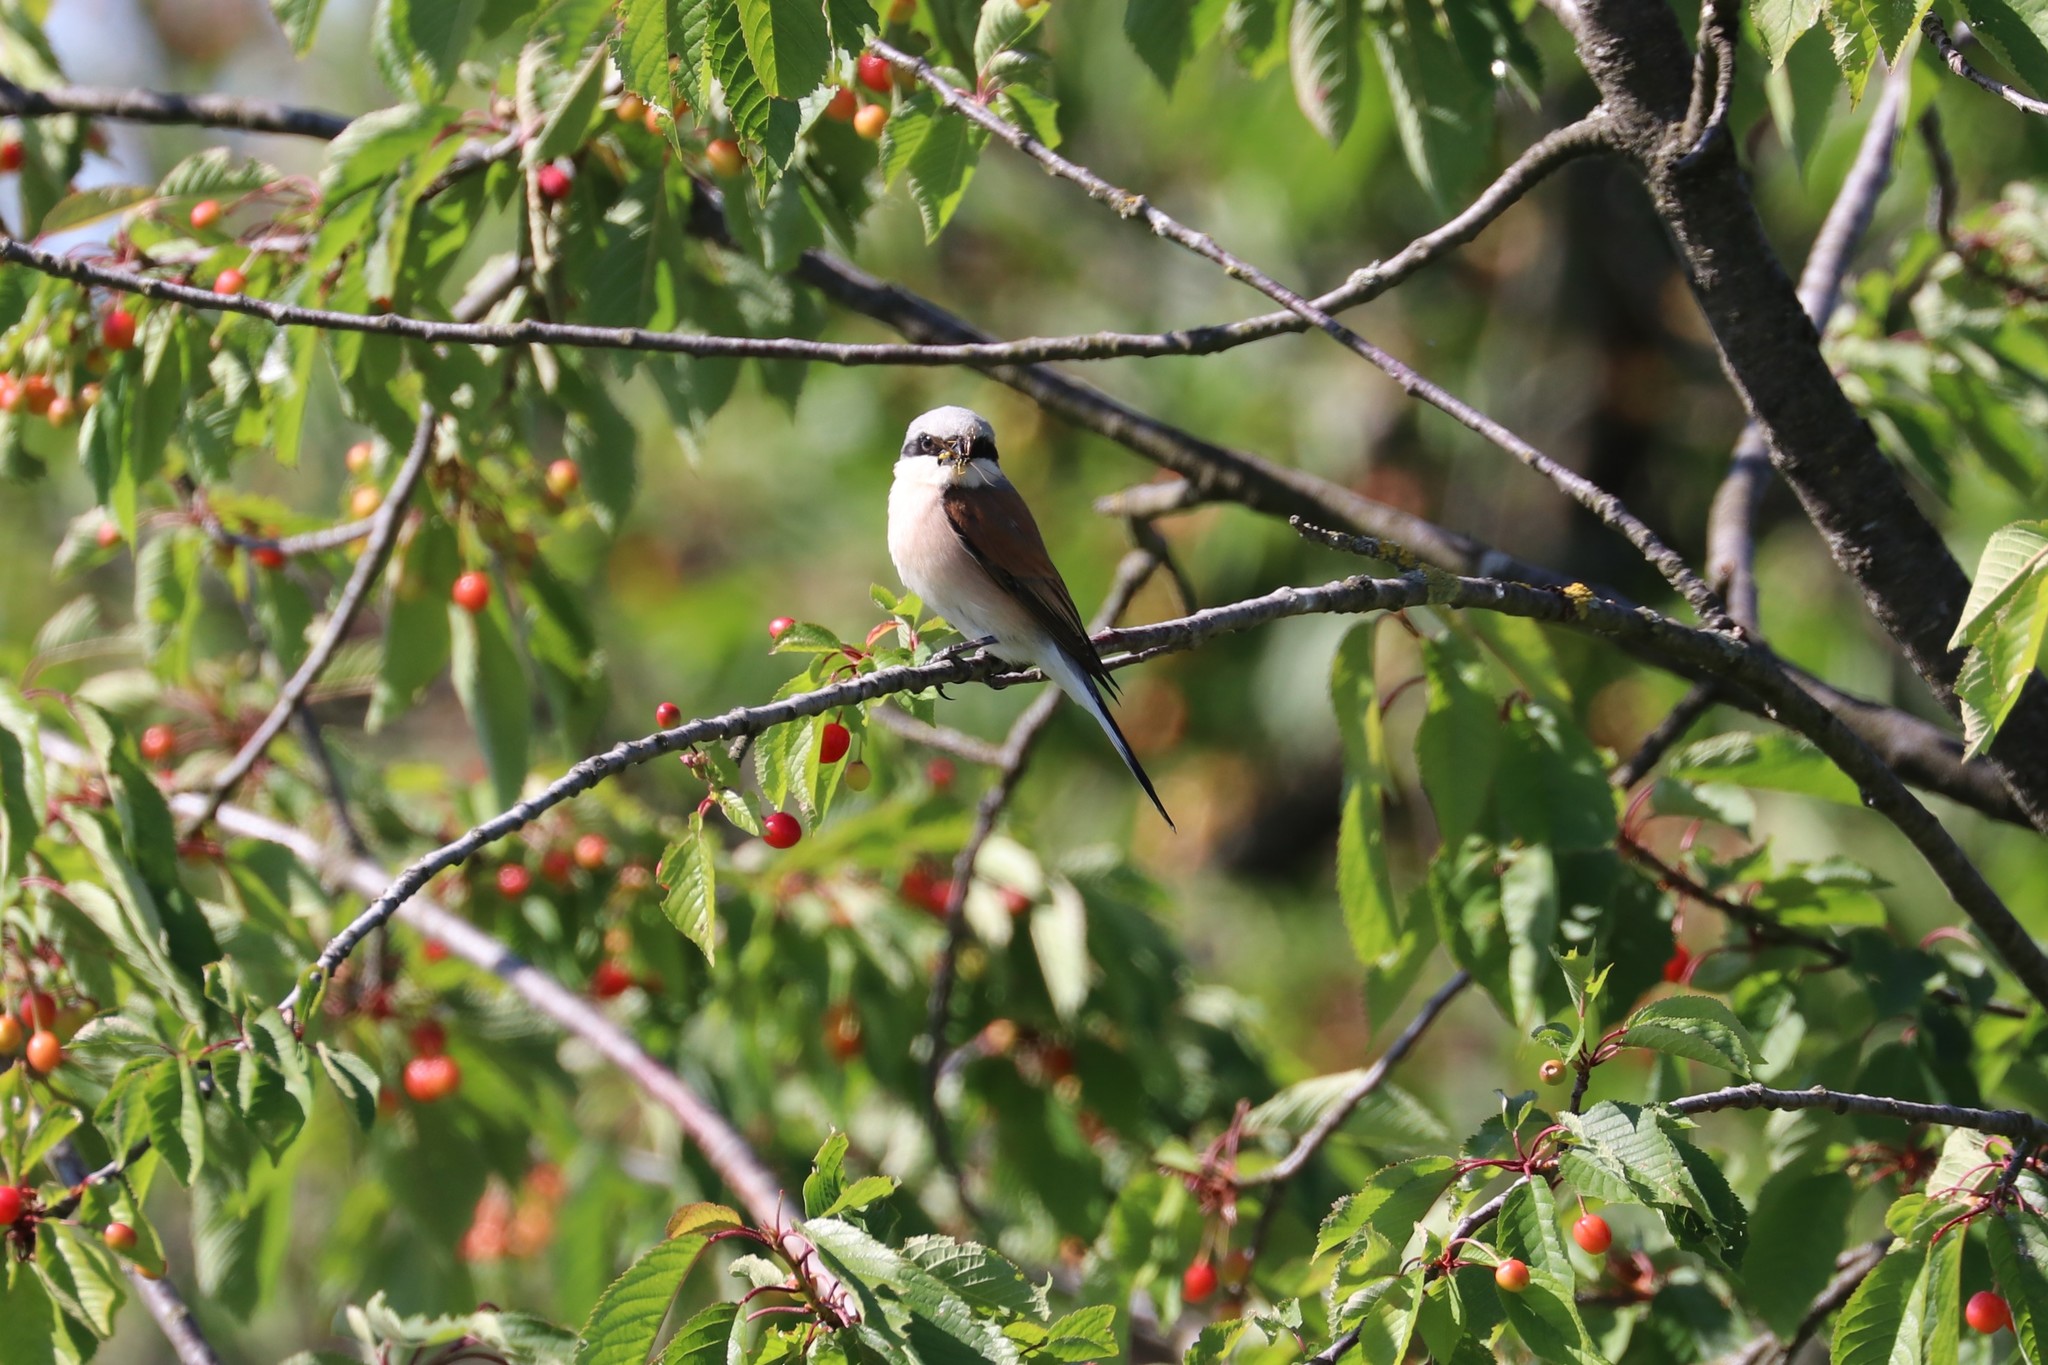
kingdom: Animalia
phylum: Chordata
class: Aves
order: Passeriformes
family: Laniidae
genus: Lanius
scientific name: Lanius collurio
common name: Red-backed shrike
